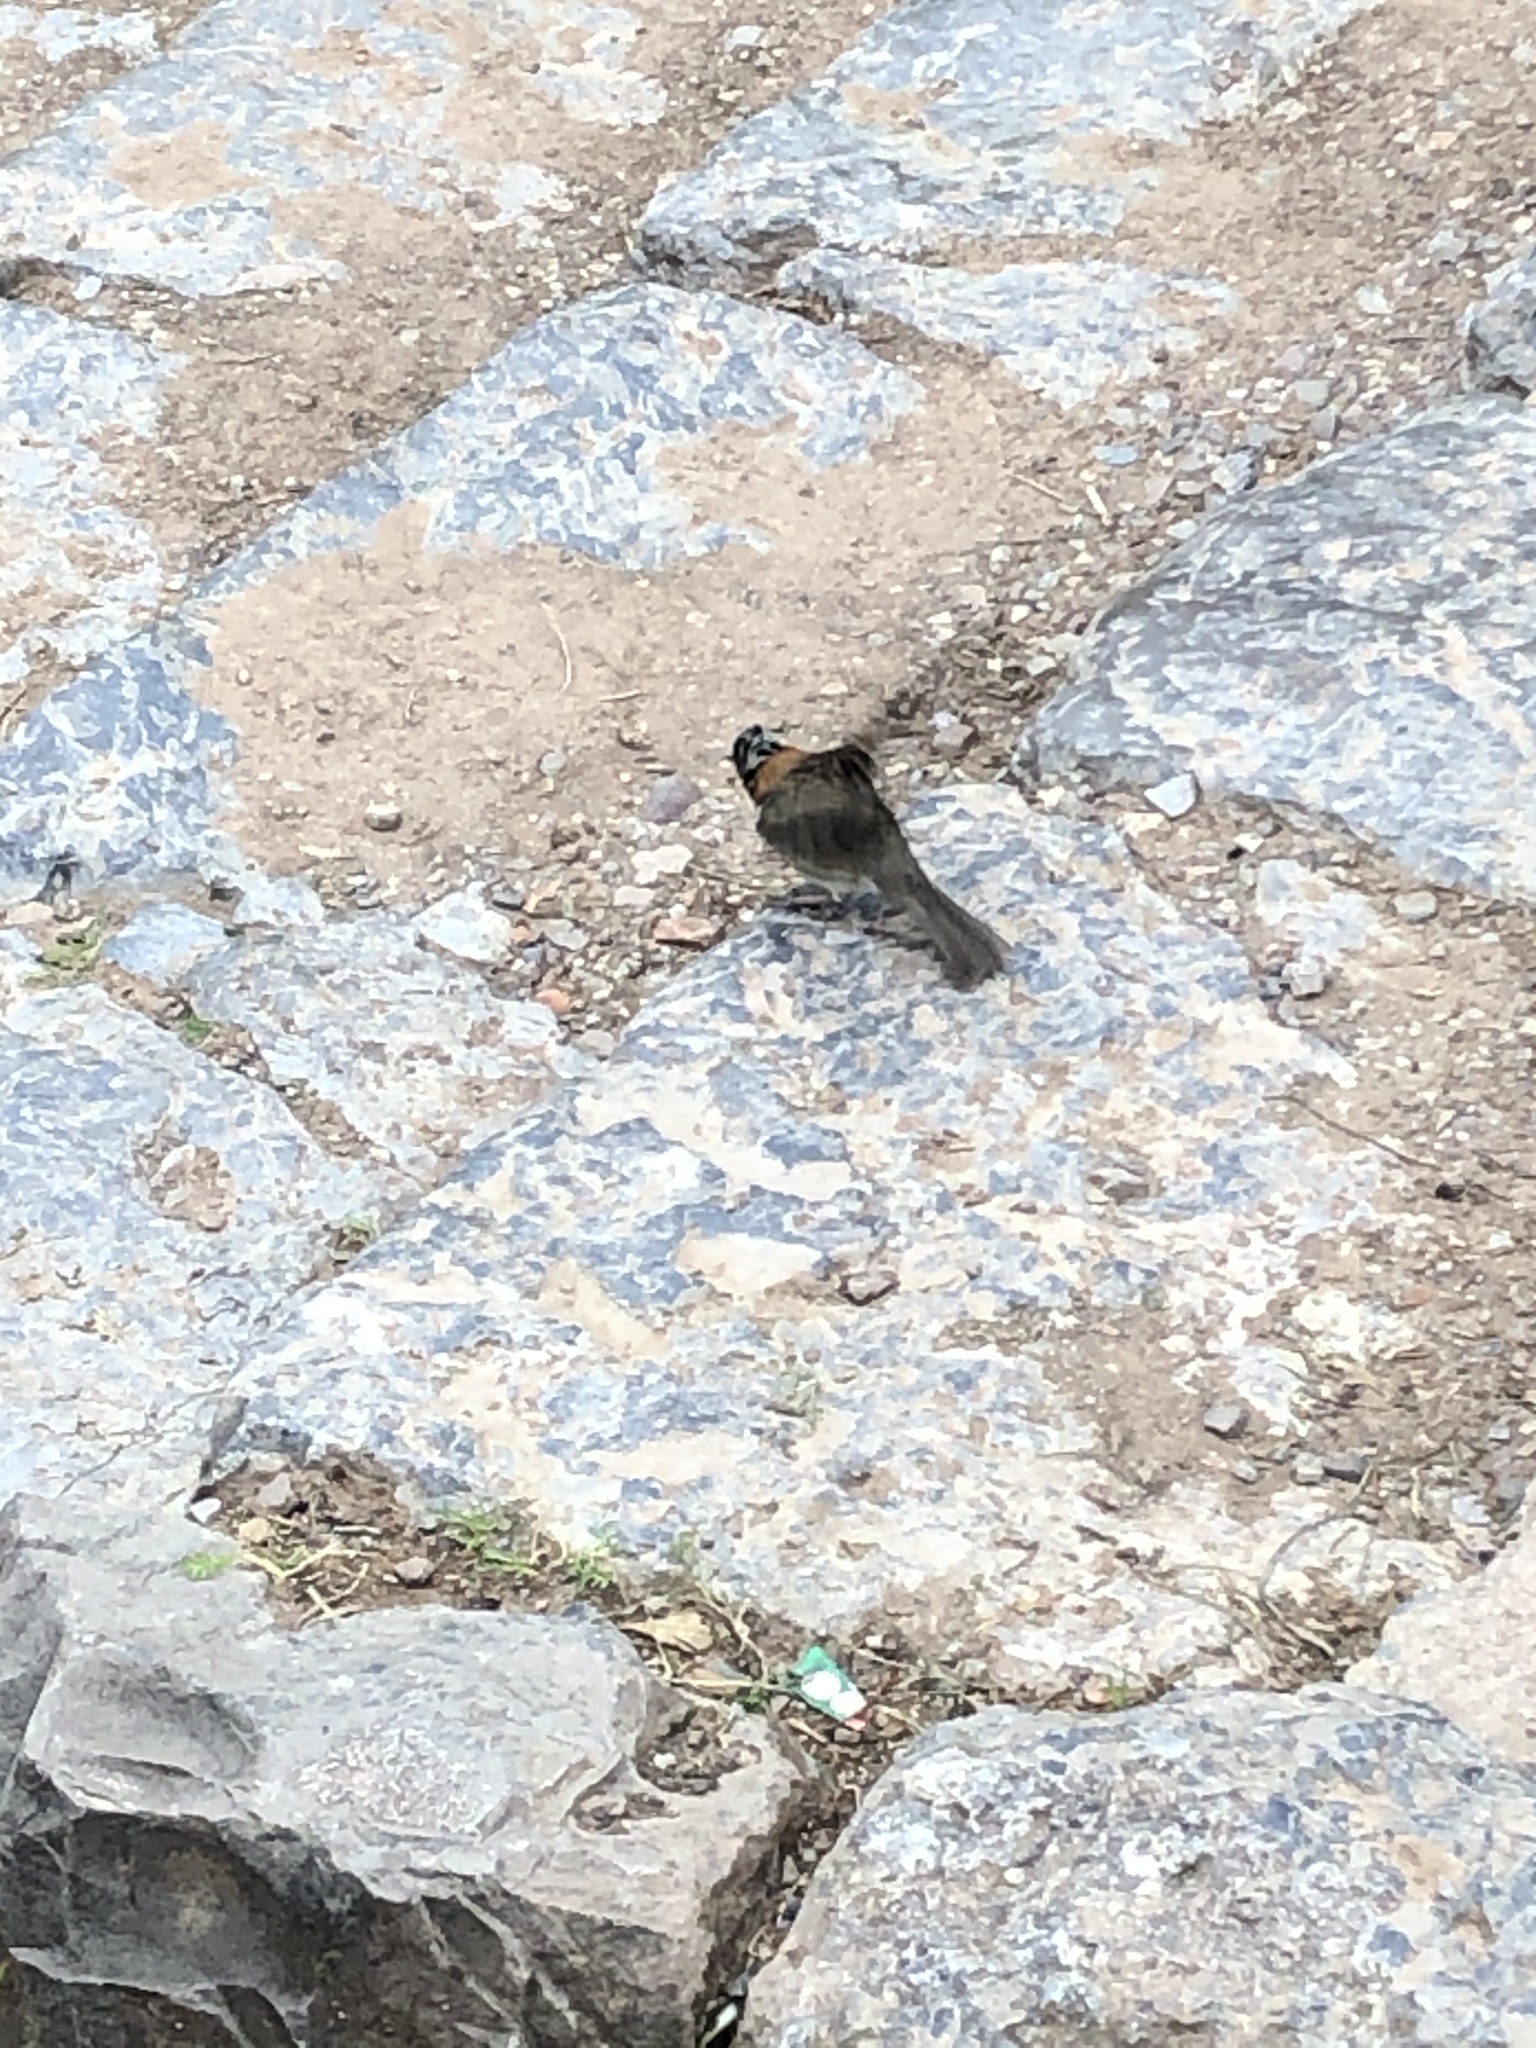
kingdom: Animalia
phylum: Chordata
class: Aves
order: Passeriformes
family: Passerellidae
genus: Zonotrichia
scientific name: Zonotrichia capensis
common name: Rufous-collared sparrow
